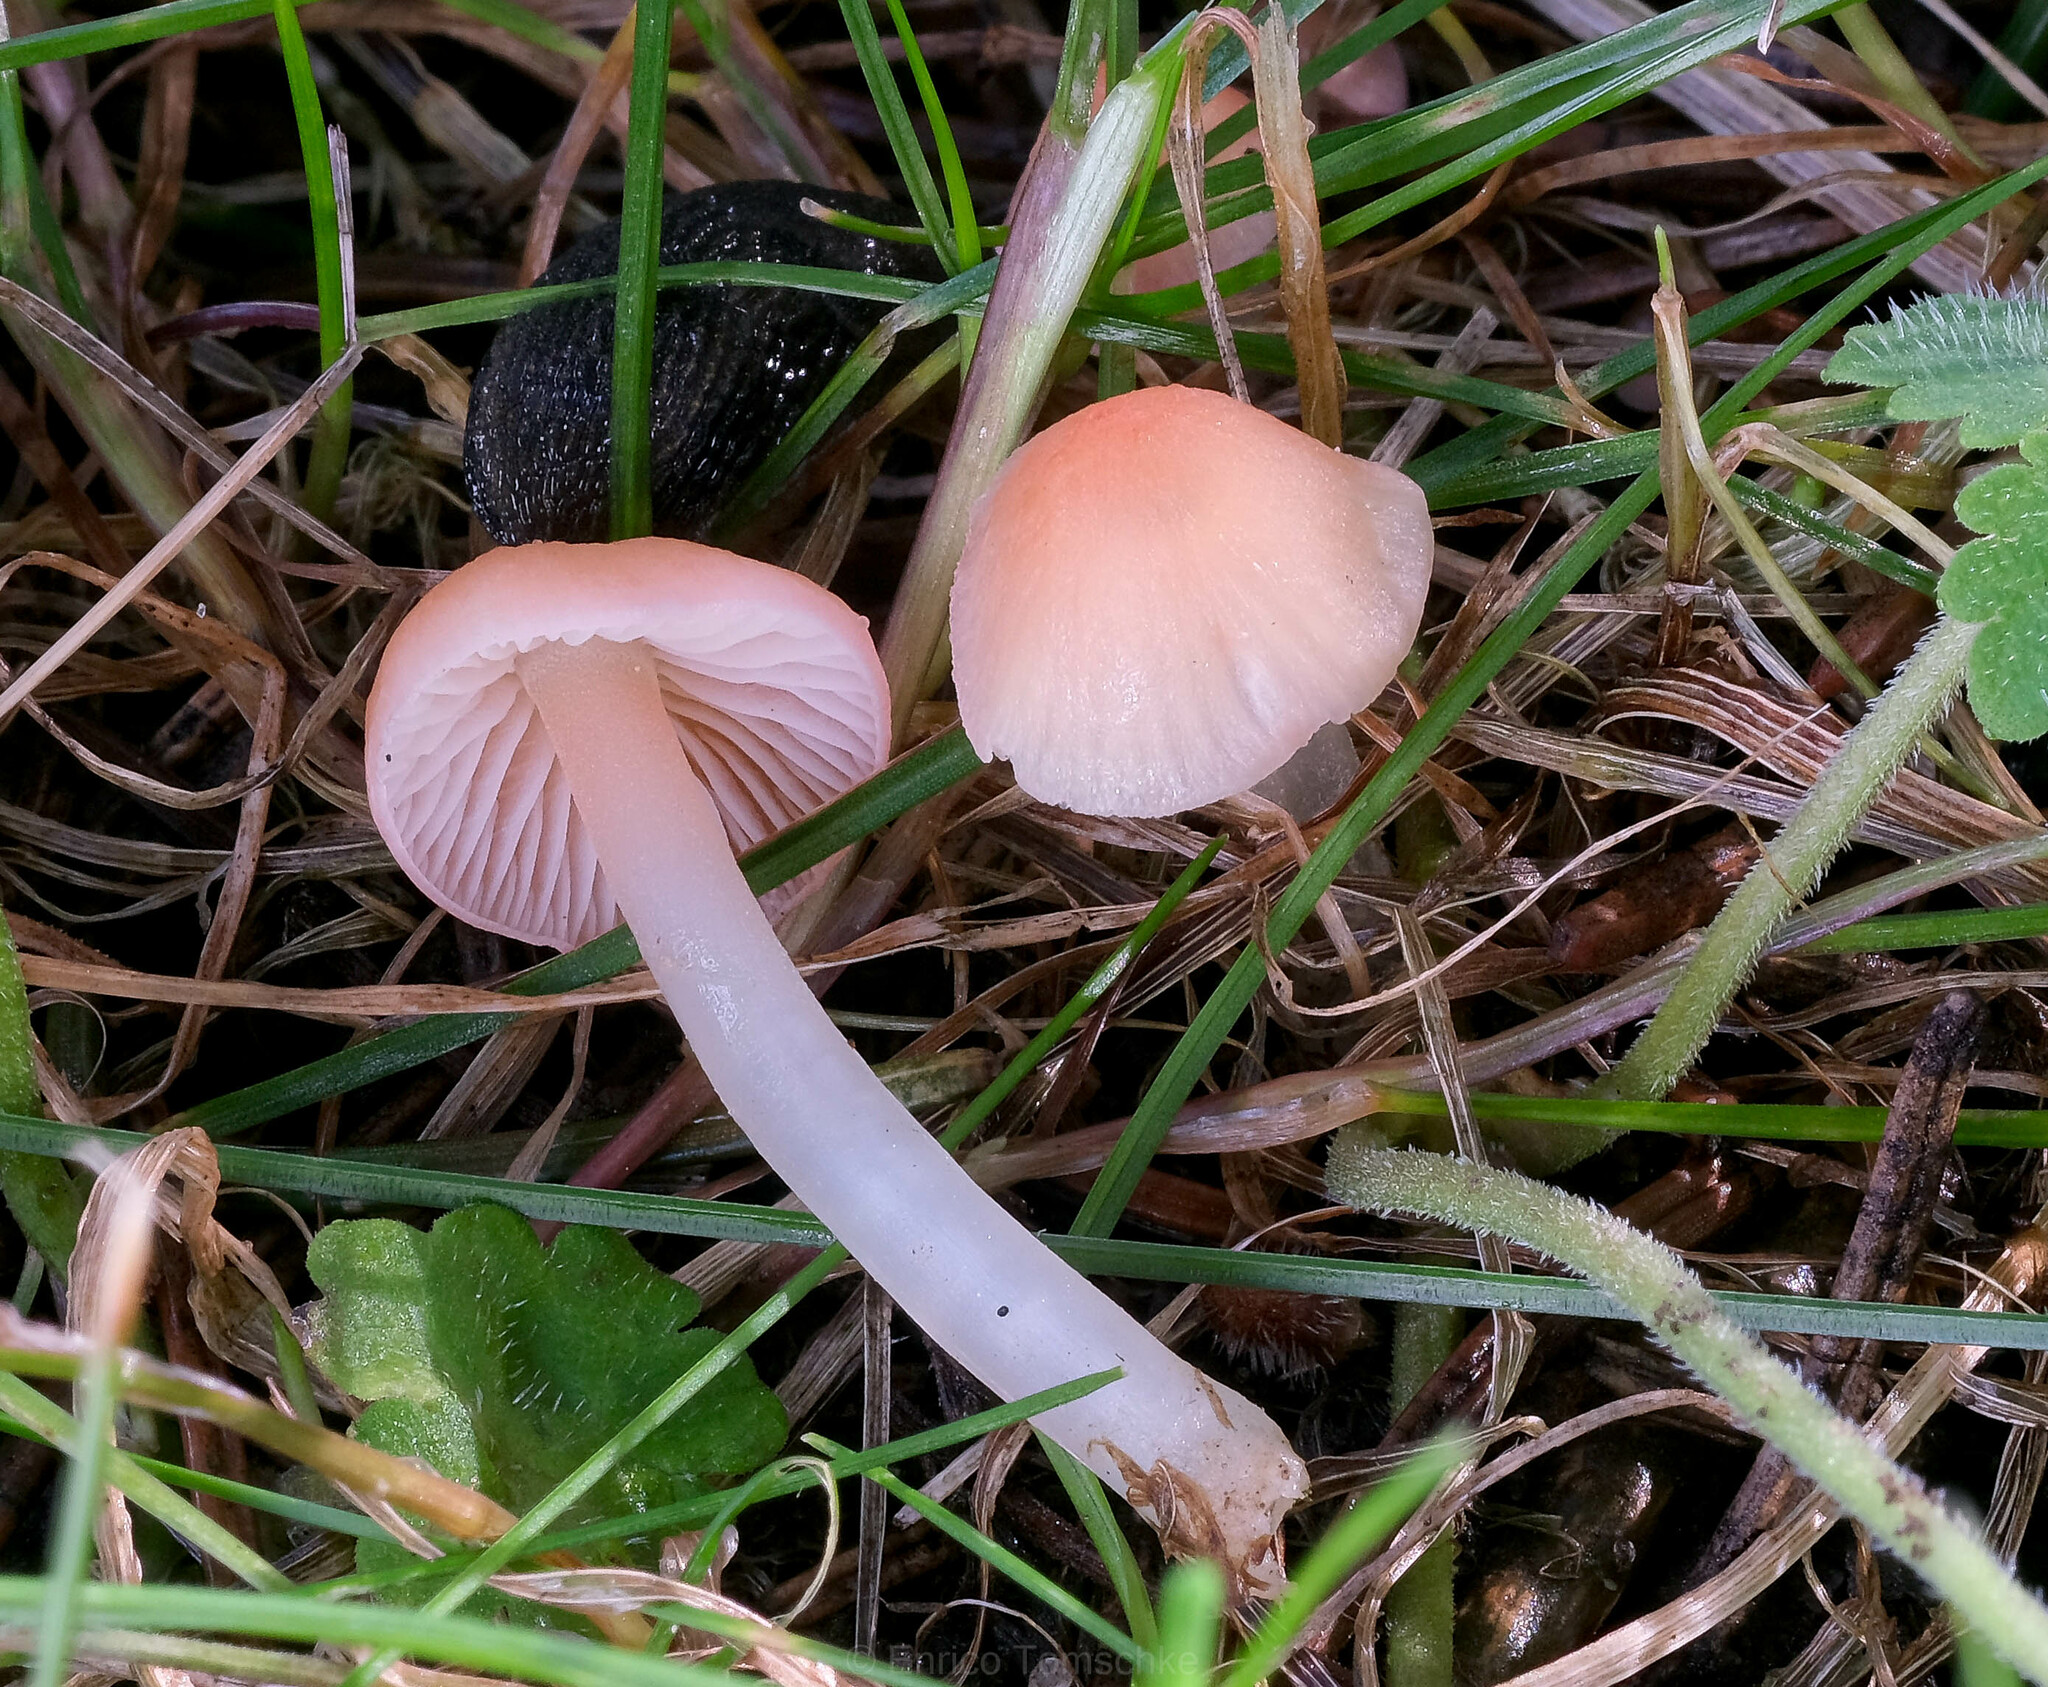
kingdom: Fungi
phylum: Basidiomycota
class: Agaricomycetes
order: Agaricales
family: Mycenaceae
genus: Atheniella
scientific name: Atheniella adonis
